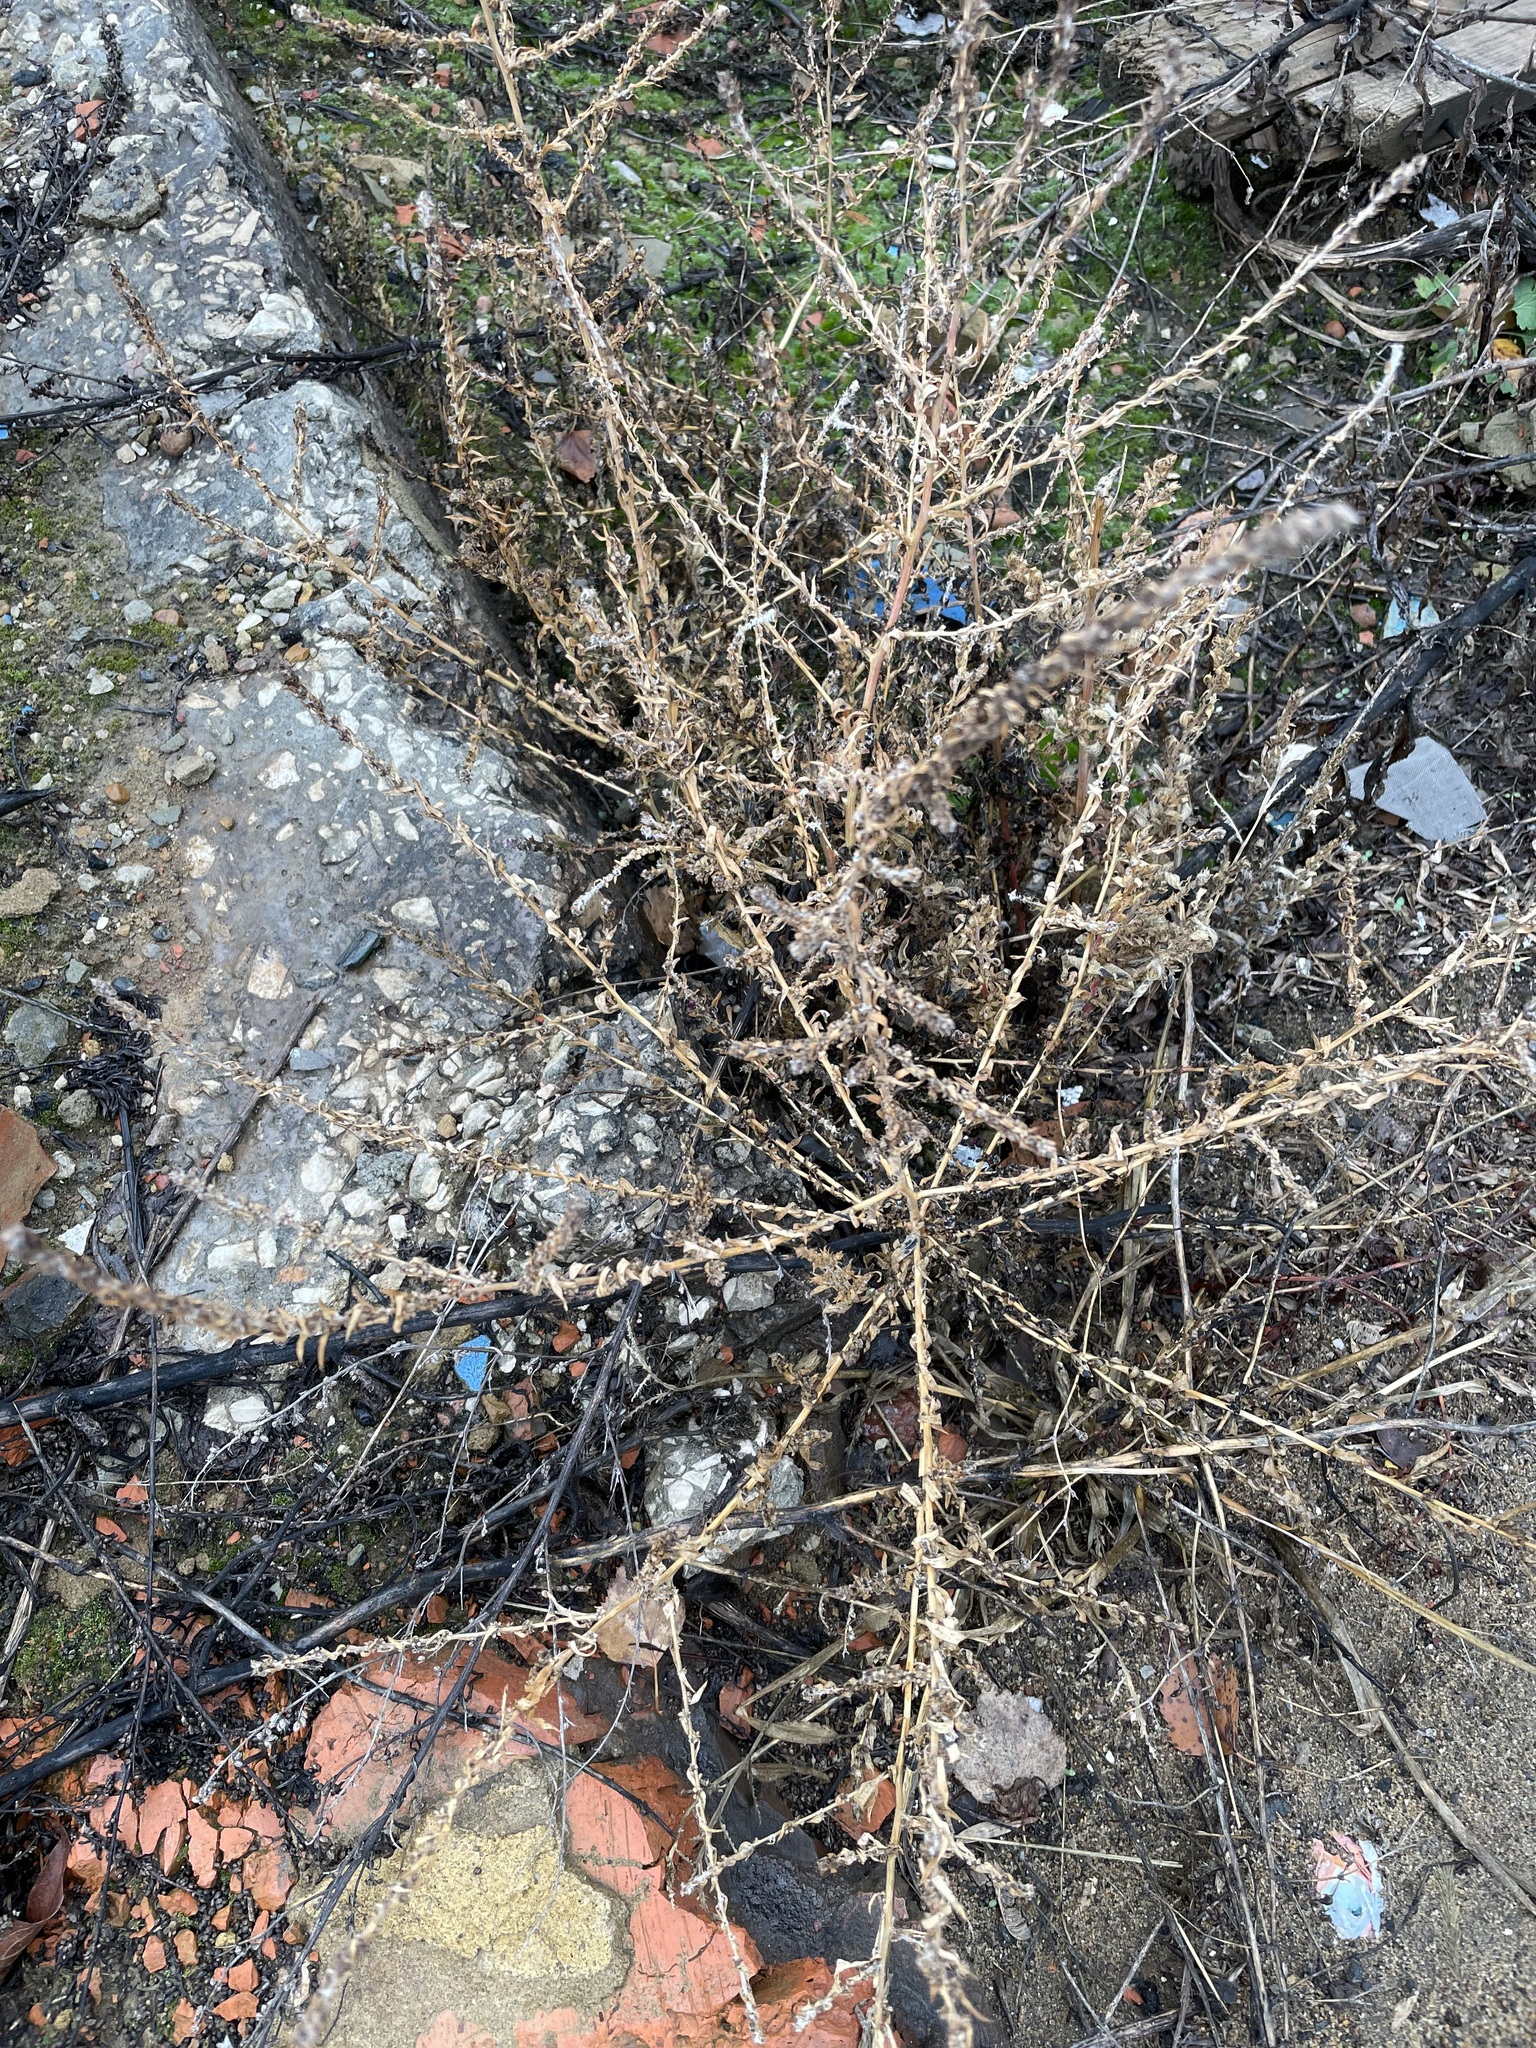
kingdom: Plantae
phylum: Tracheophyta
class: Magnoliopsida
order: Caryophyllales
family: Amaranthaceae
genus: Bassia
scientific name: Bassia scoparia
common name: Belvedere
